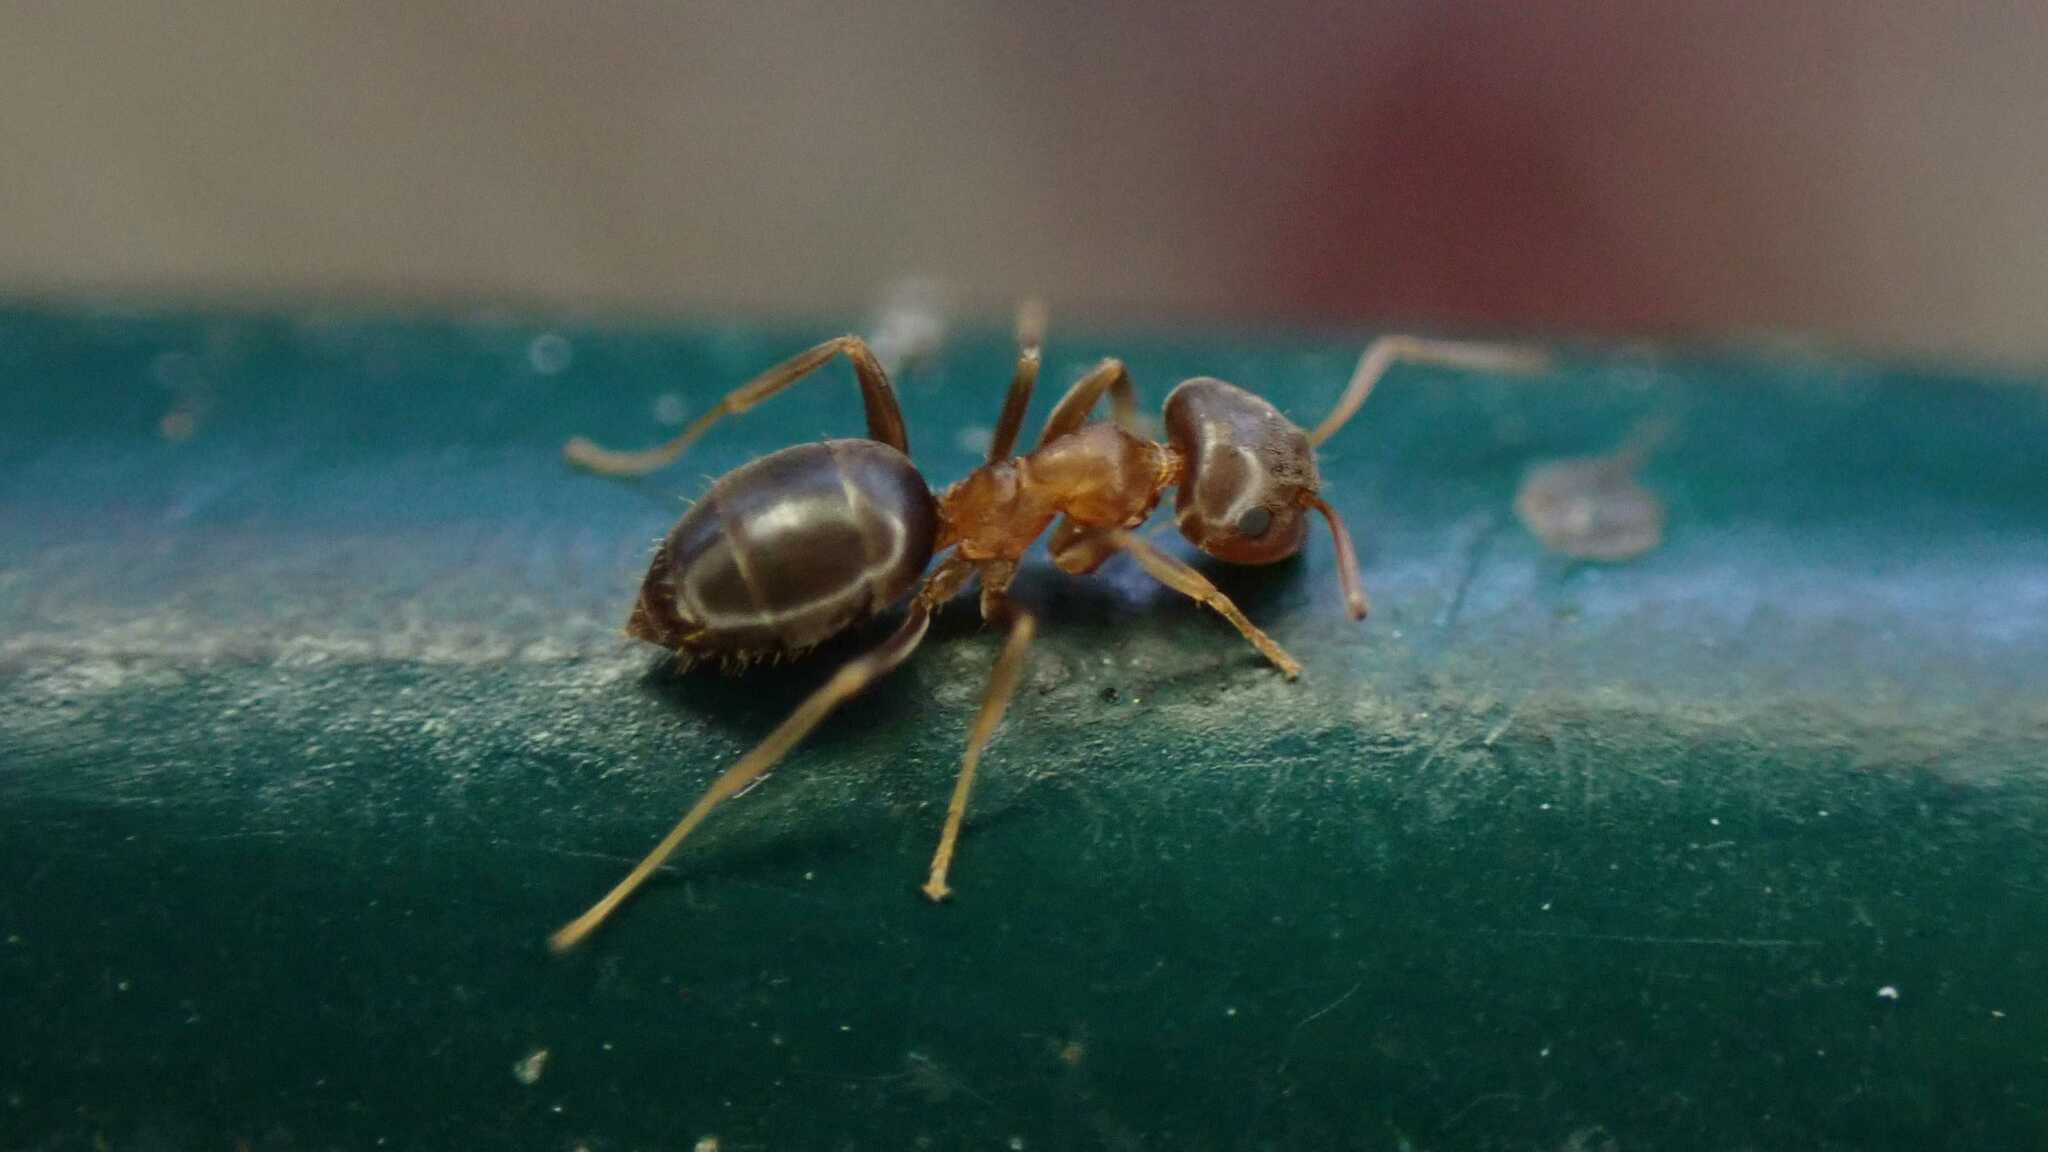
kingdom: Animalia
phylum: Arthropoda
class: Insecta
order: Hymenoptera
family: Formicidae
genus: Lasius
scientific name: Lasius brunneus
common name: Brown ant
